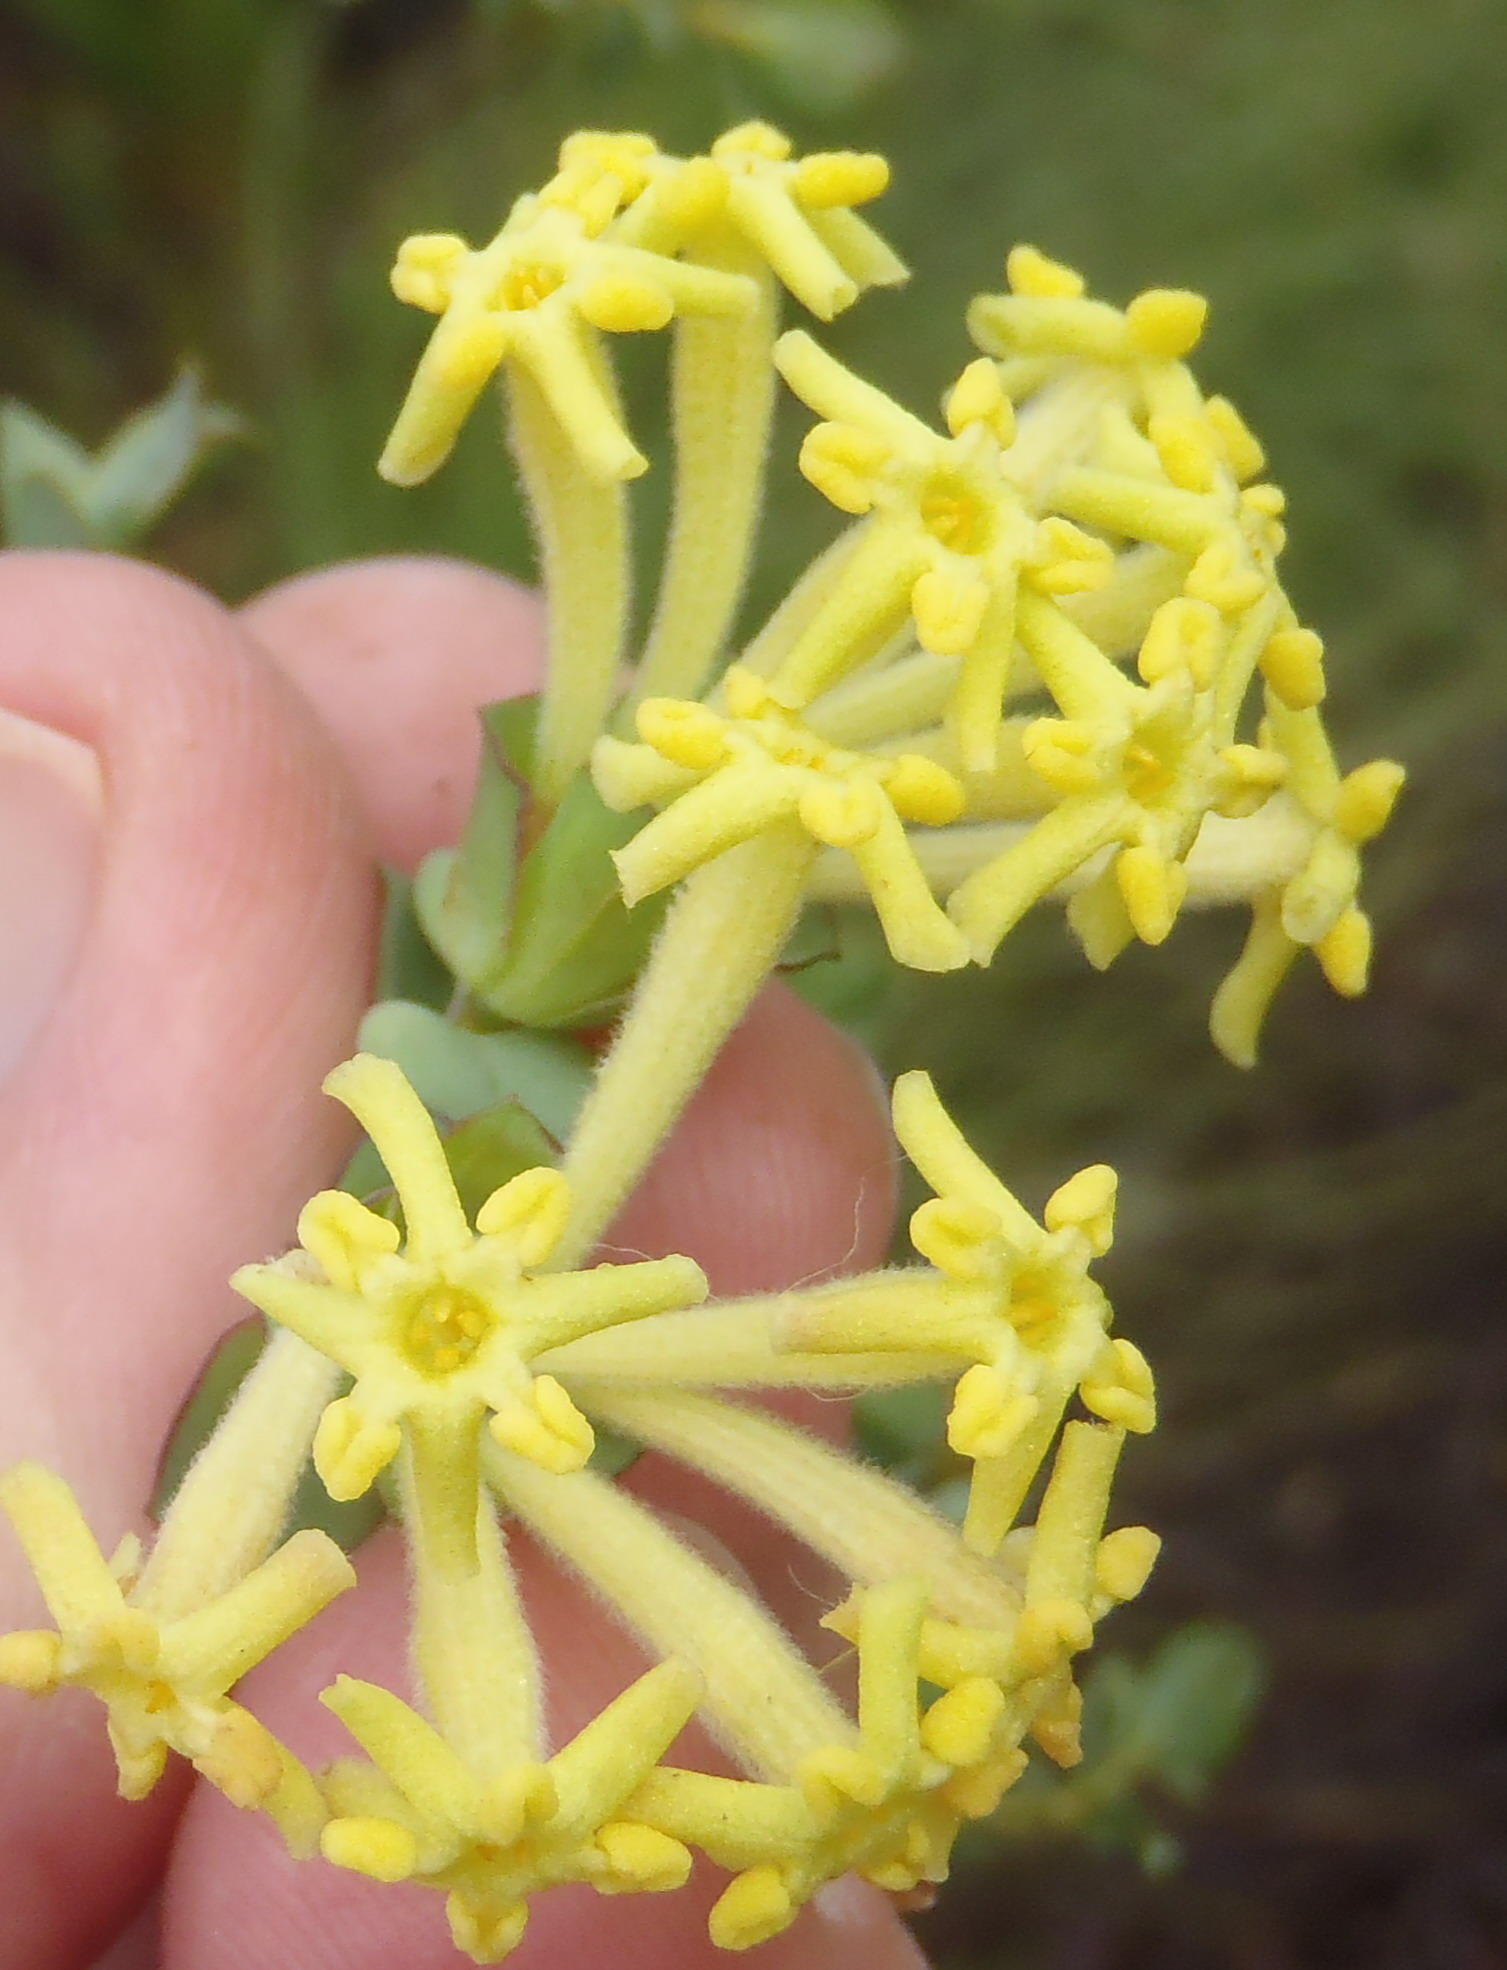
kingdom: Plantae
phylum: Tracheophyta
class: Magnoliopsida
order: Malvales
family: Thymelaeaceae
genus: Gnidia
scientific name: Gnidia oppositifolia
